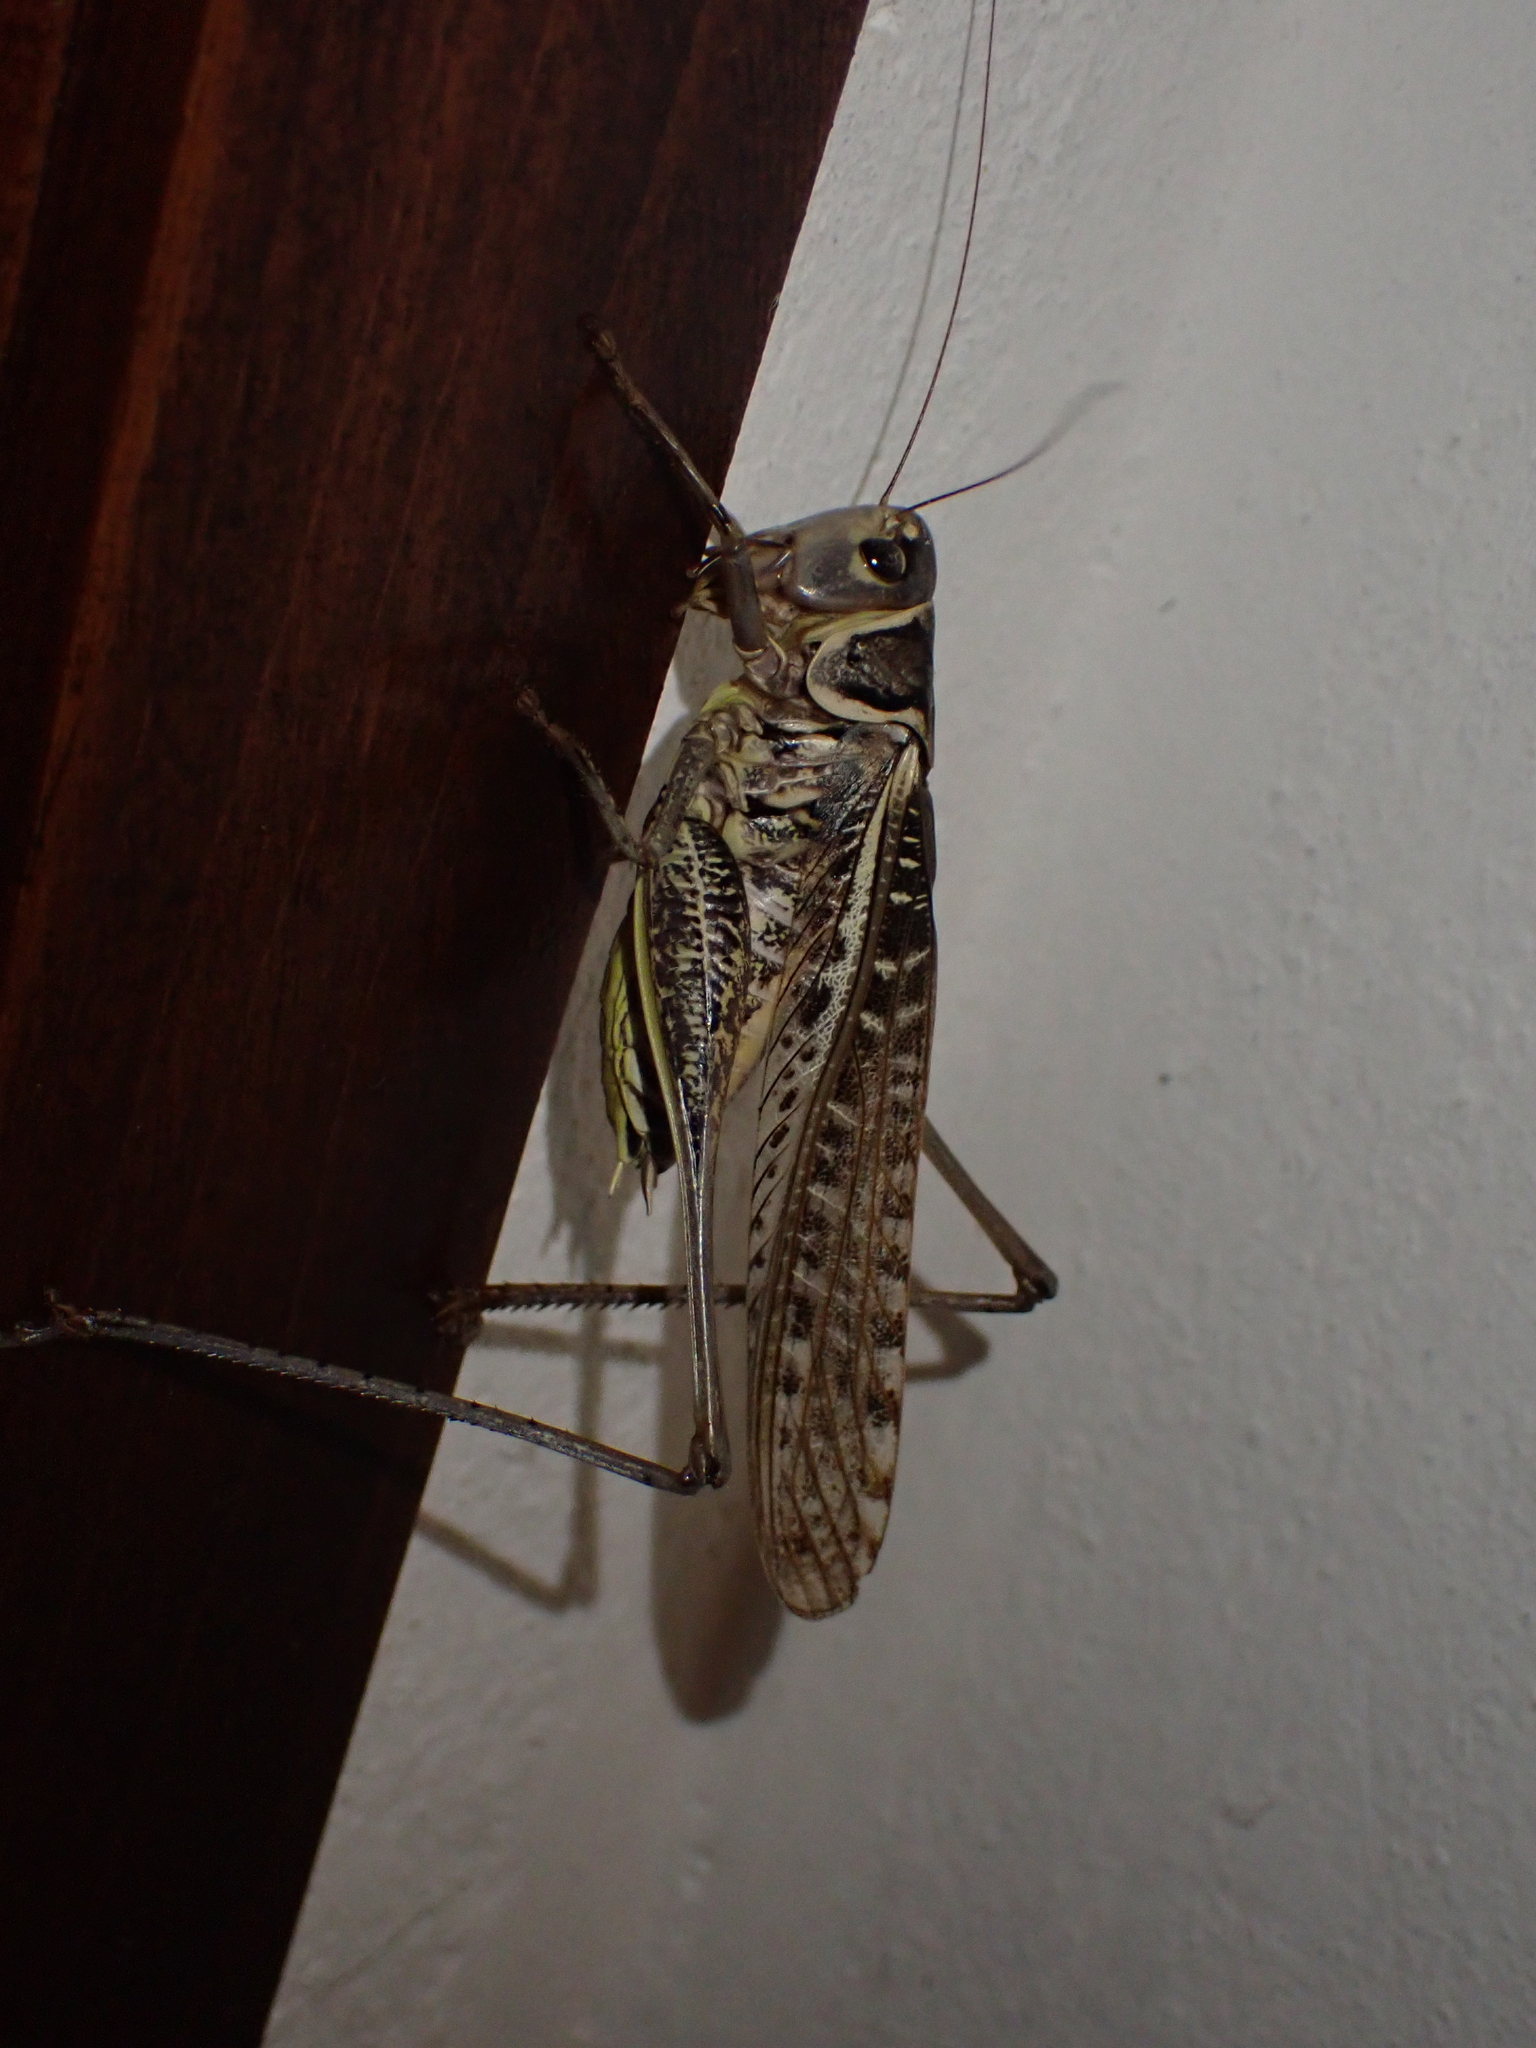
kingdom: Animalia
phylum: Arthropoda
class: Insecta
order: Orthoptera
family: Tettigoniidae
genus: Decticus
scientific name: Decticus albifrons
